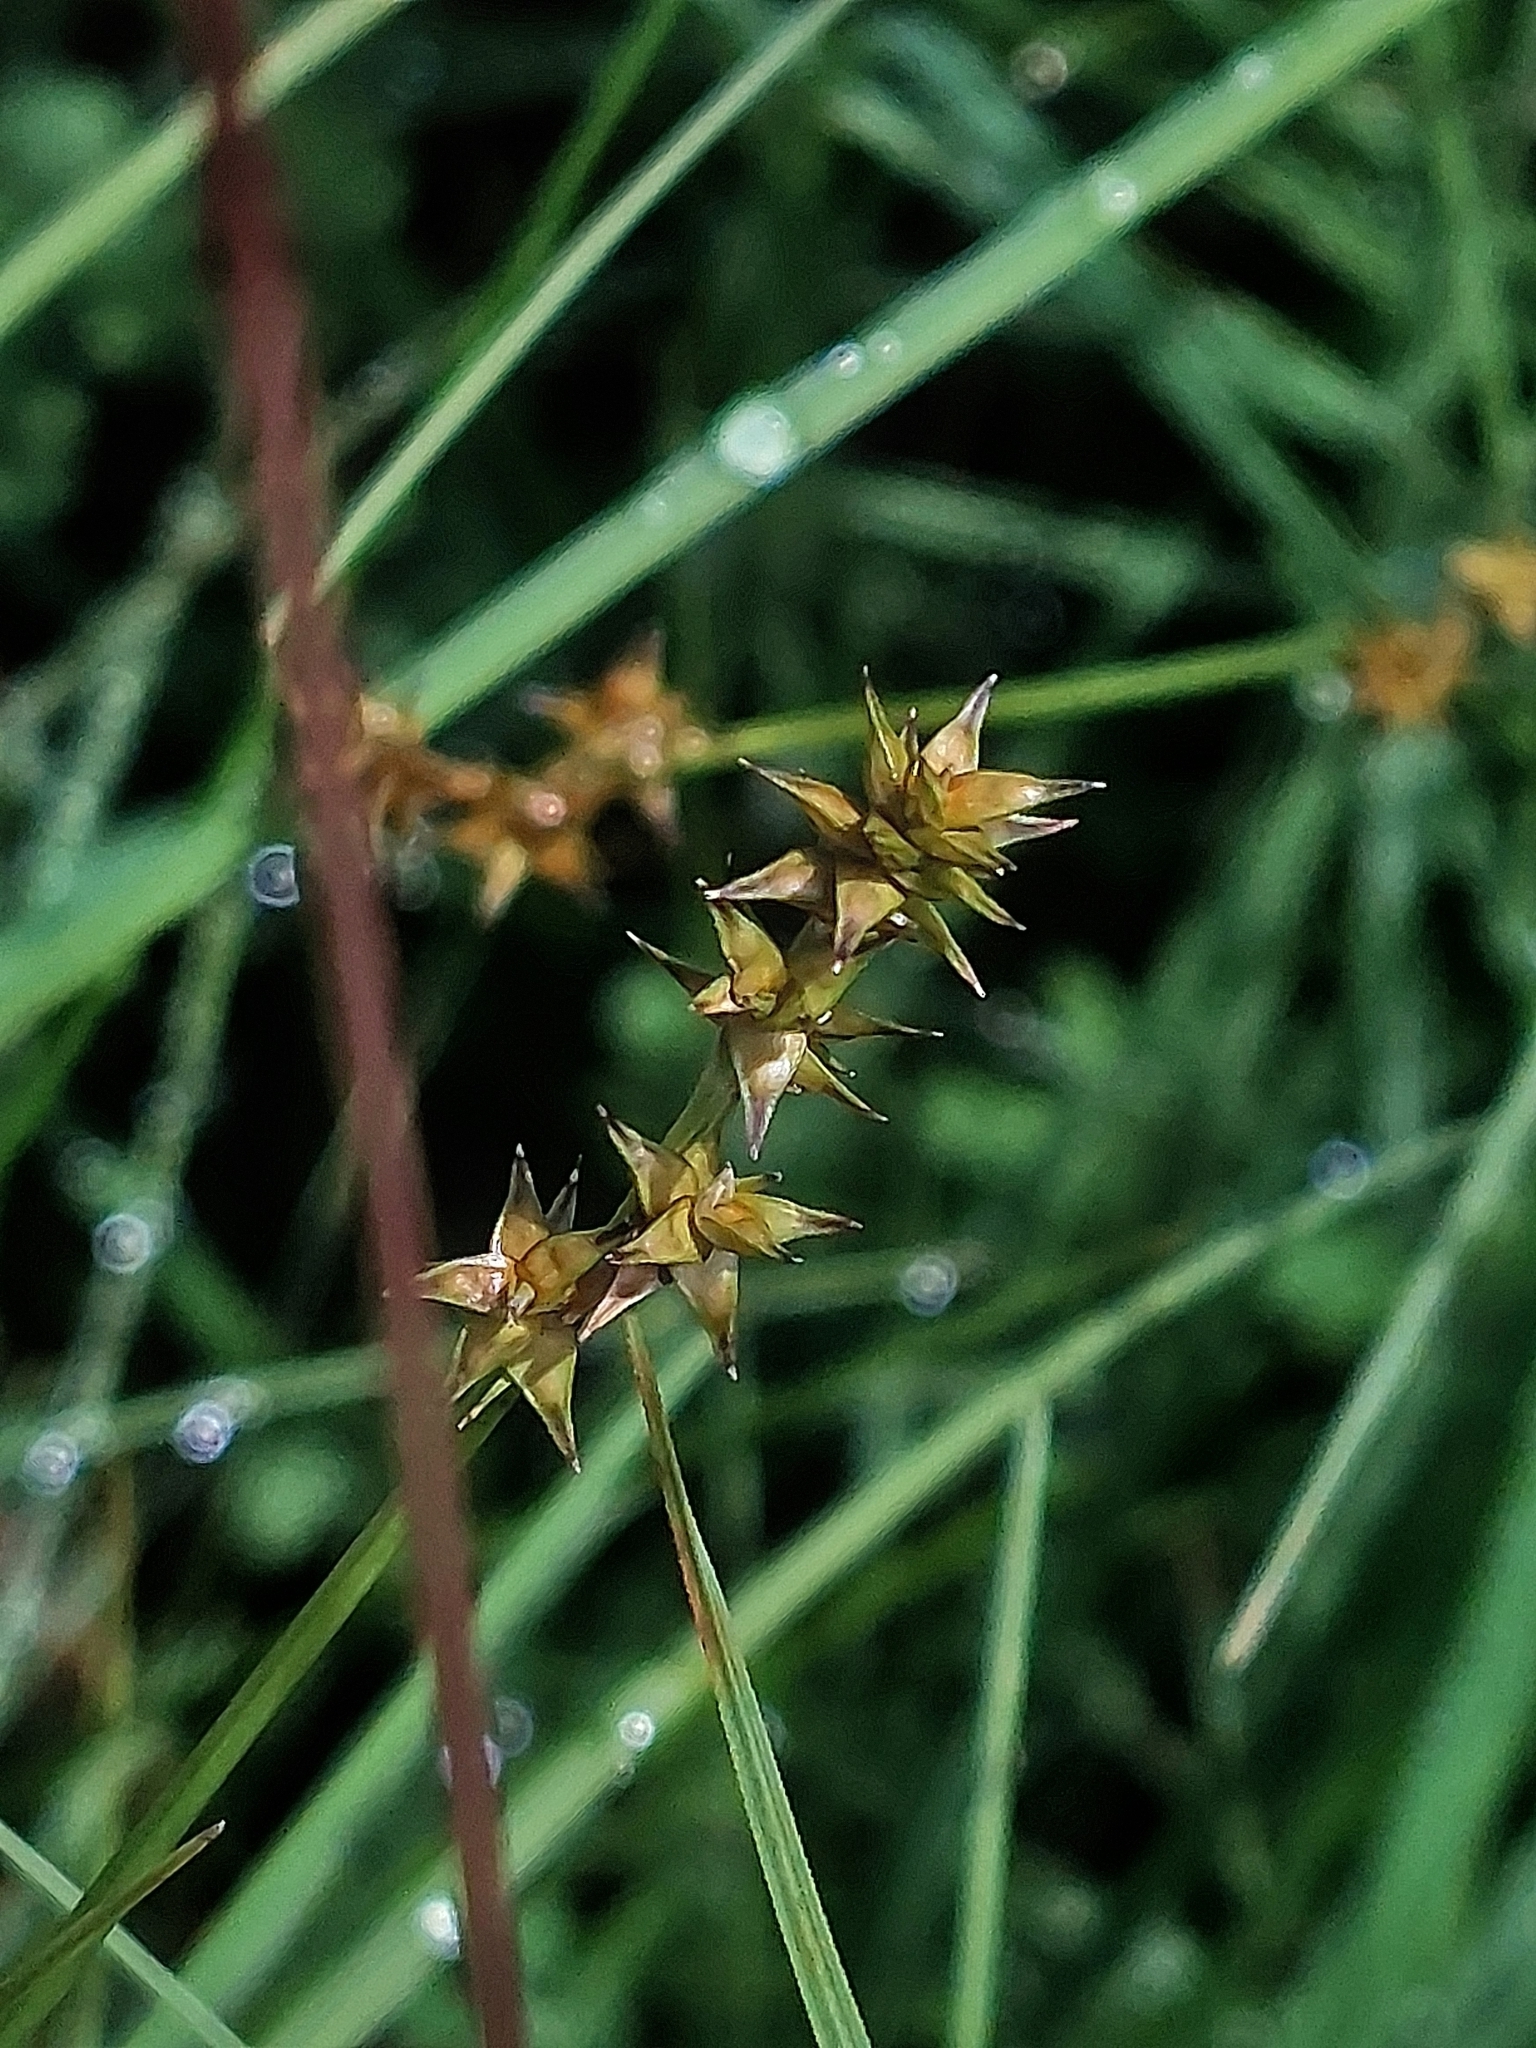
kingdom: Plantae
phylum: Tracheophyta
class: Liliopsida
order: Poales
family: Cyperaceae
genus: Carex
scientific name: Carex echinata
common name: Star sedge
